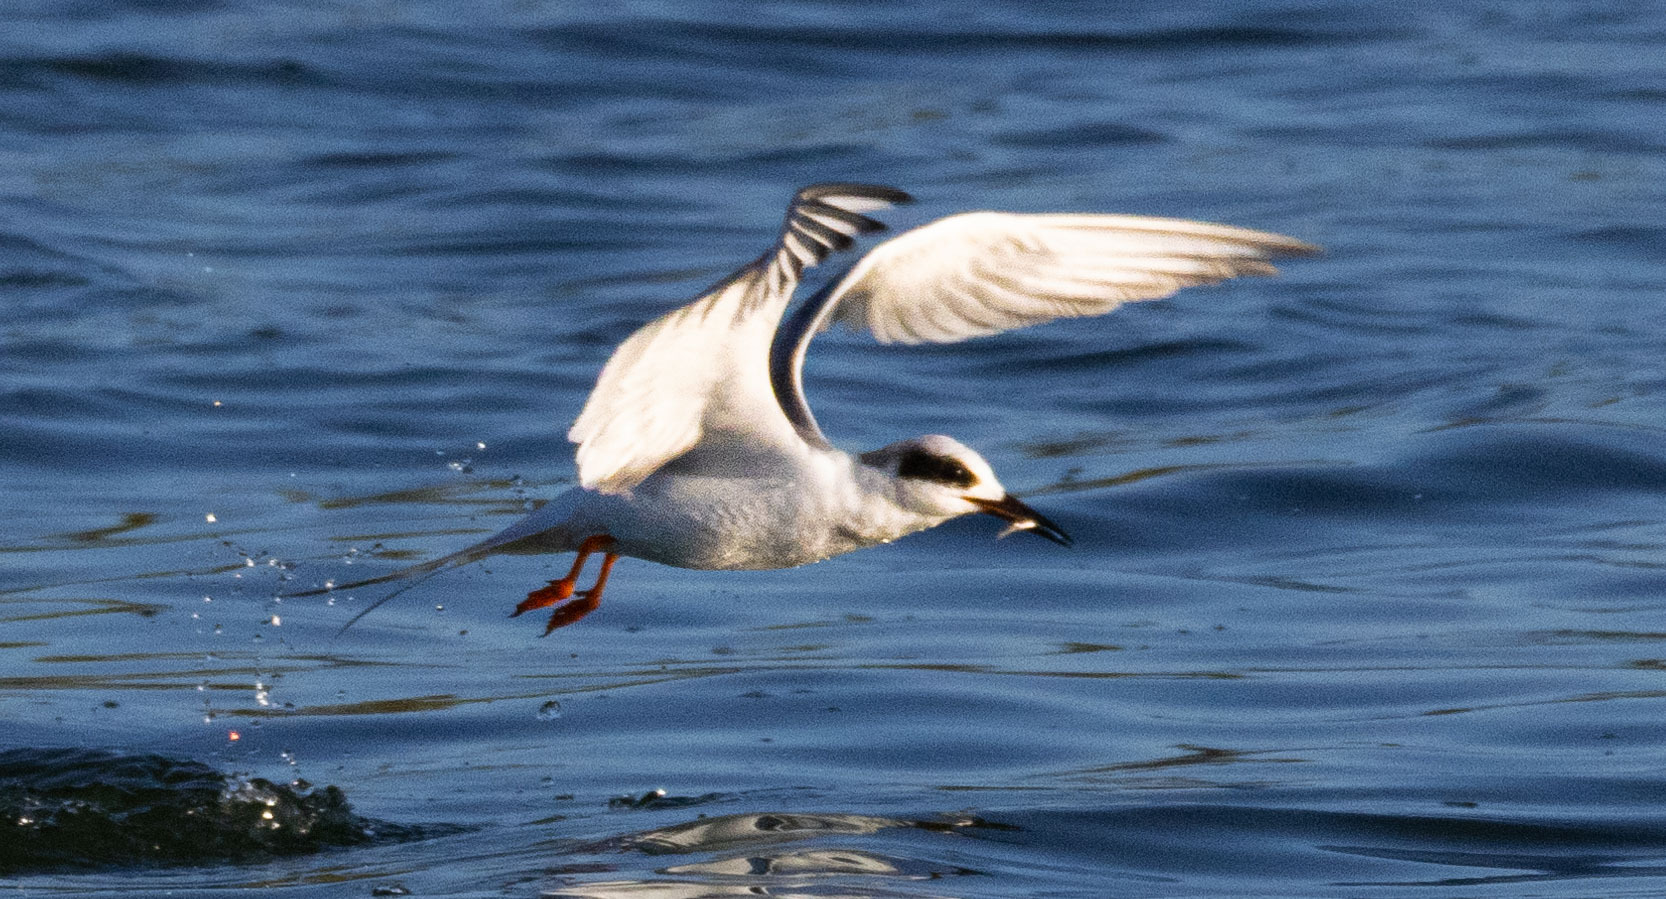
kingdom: Animalia
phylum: Chordata
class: Aves
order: Charadriiformes
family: Laridae
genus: Sterna
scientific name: Sterna forsteri
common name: Forster's tern
